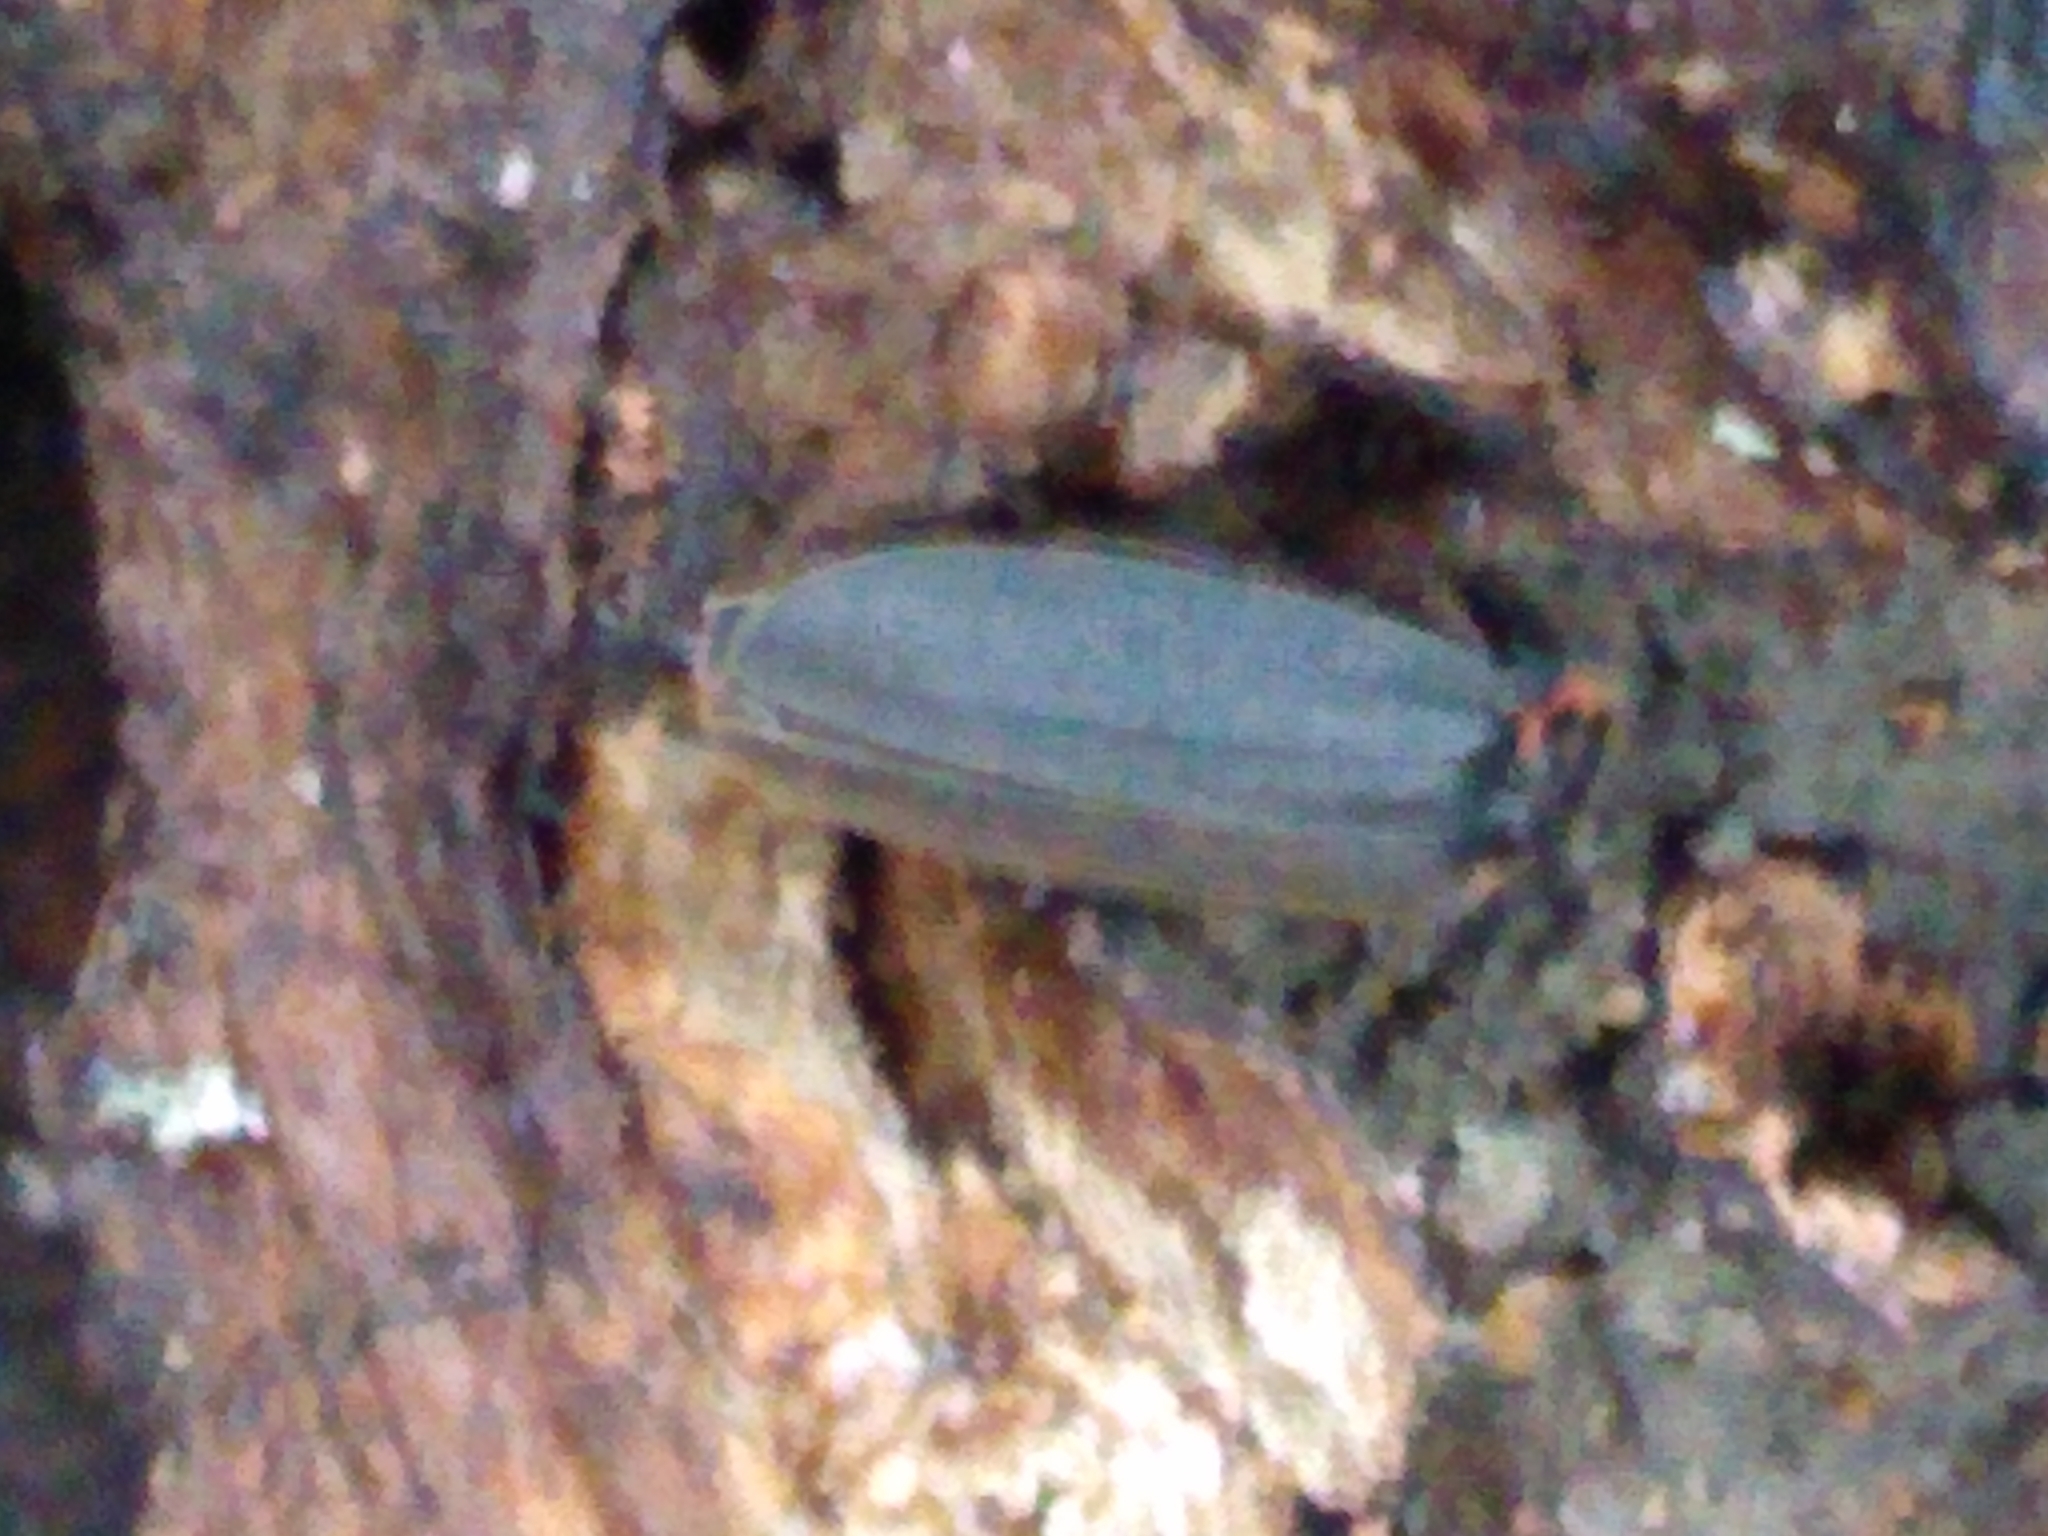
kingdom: Animalia
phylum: Arthropoda
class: Insecta
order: Coleoptera
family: Lampyridae
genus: Photinus
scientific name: Photinus corrusca
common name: Winter firefly
